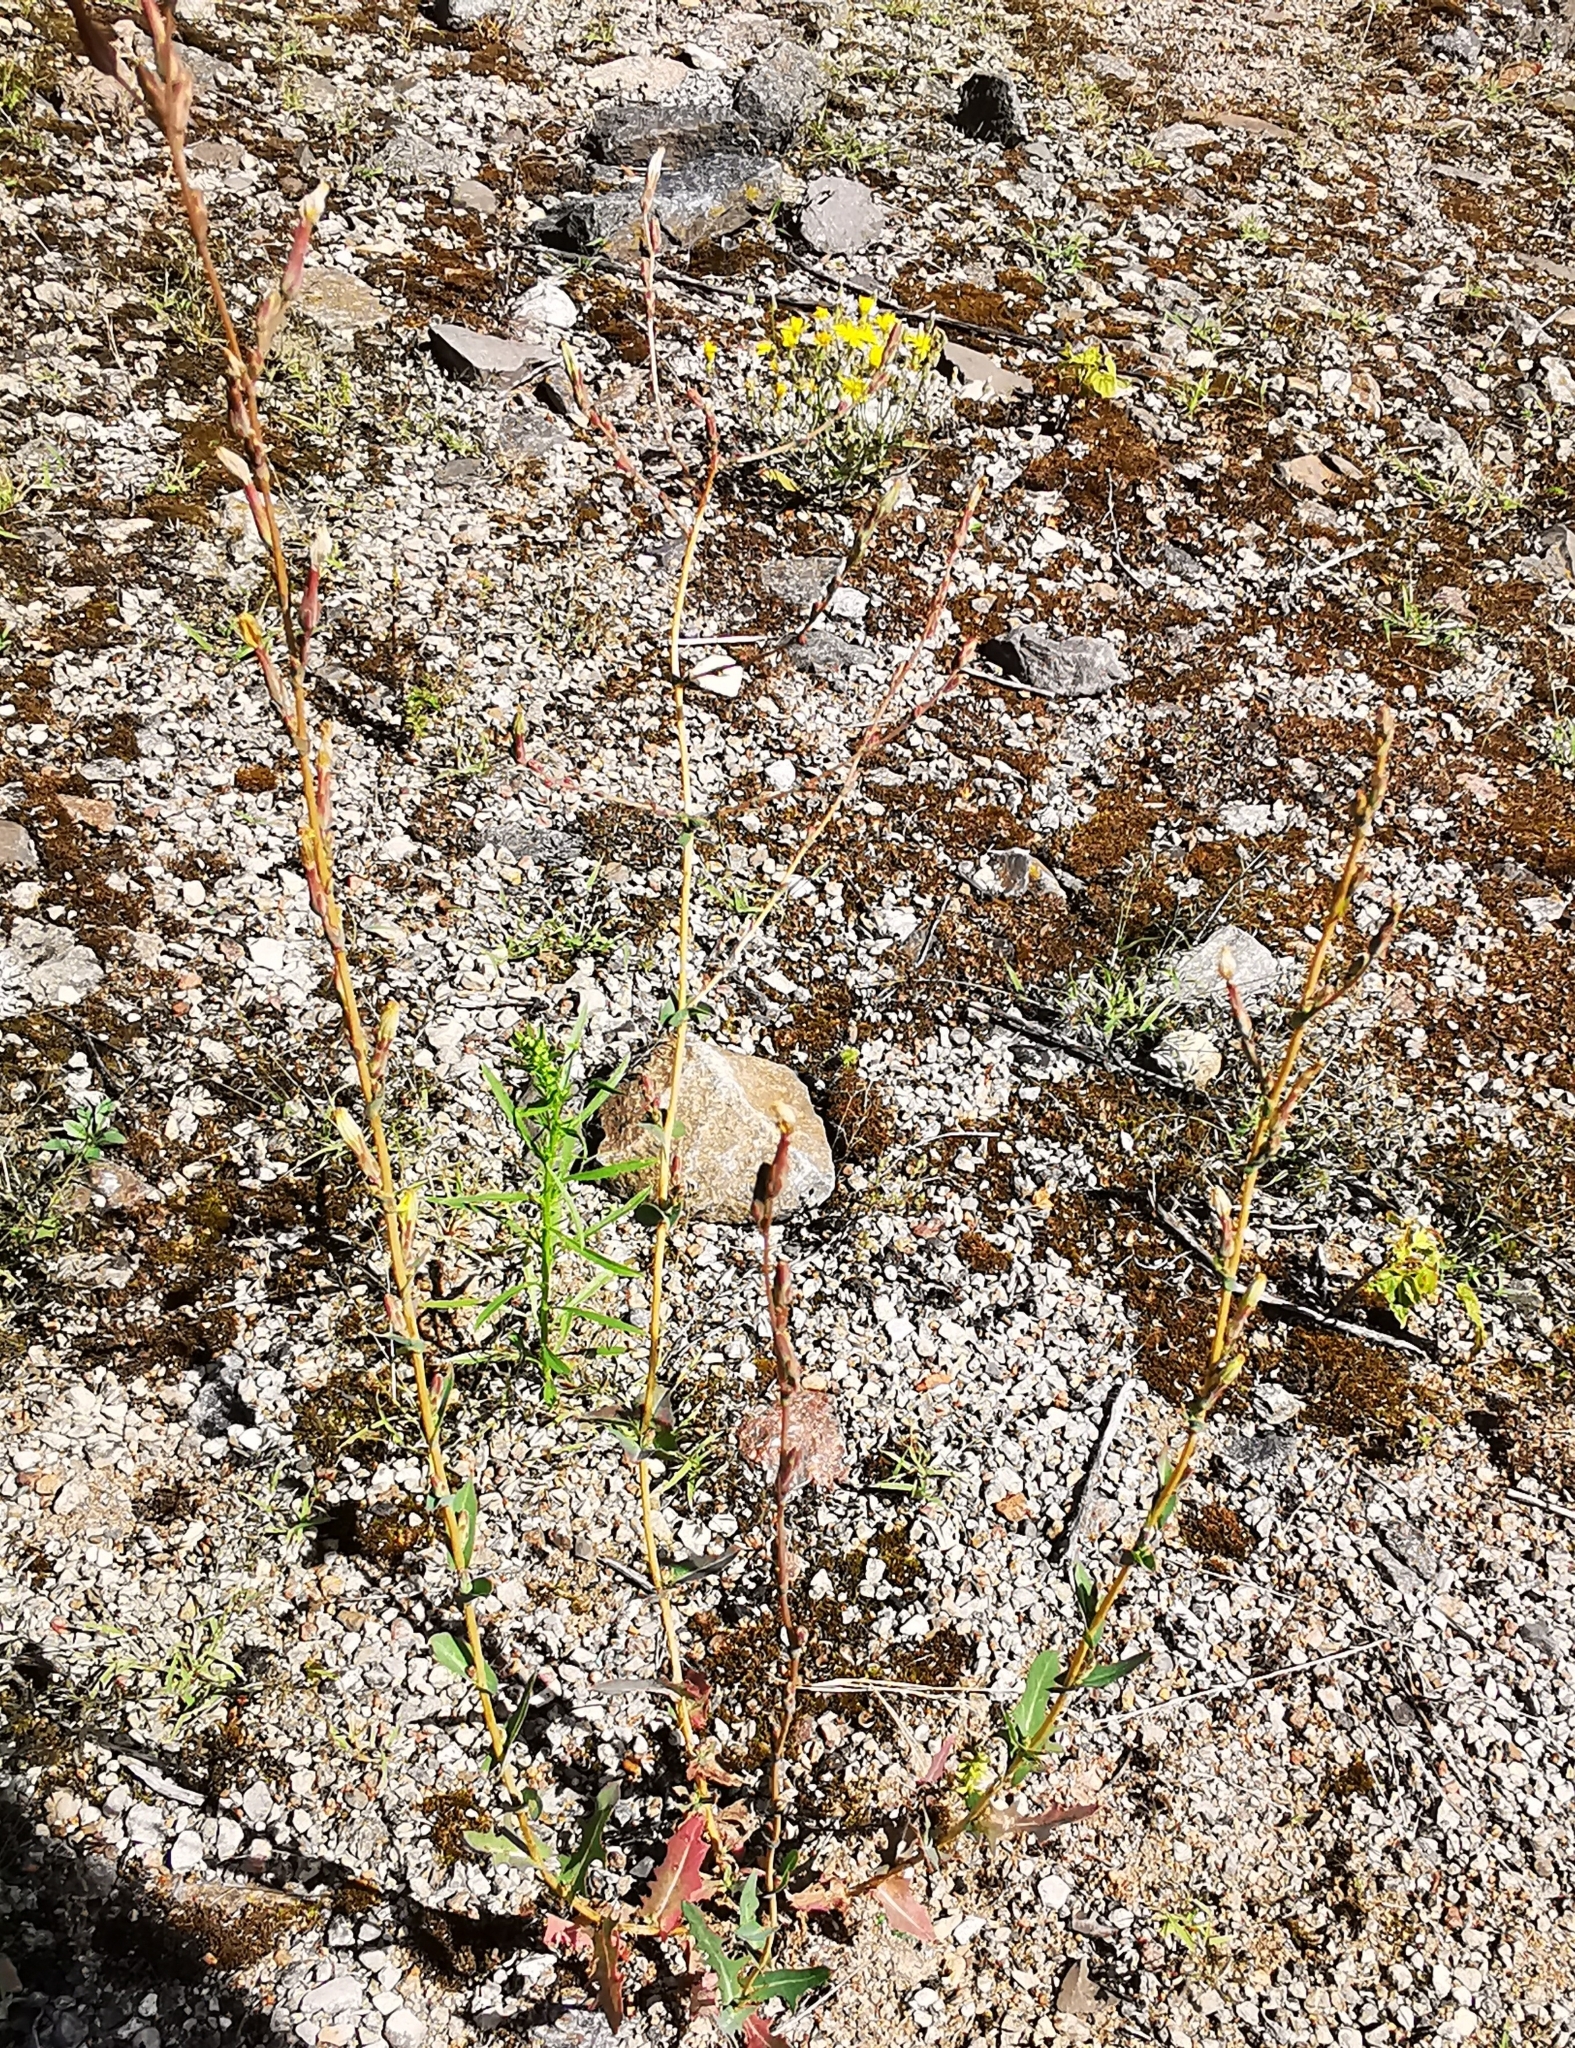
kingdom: Plantae
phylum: Tracheophyta
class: Magnoliopsida
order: Asterales
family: Asteraceae
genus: Lactuca
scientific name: Lactuca serriola
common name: Prickly lettuce
